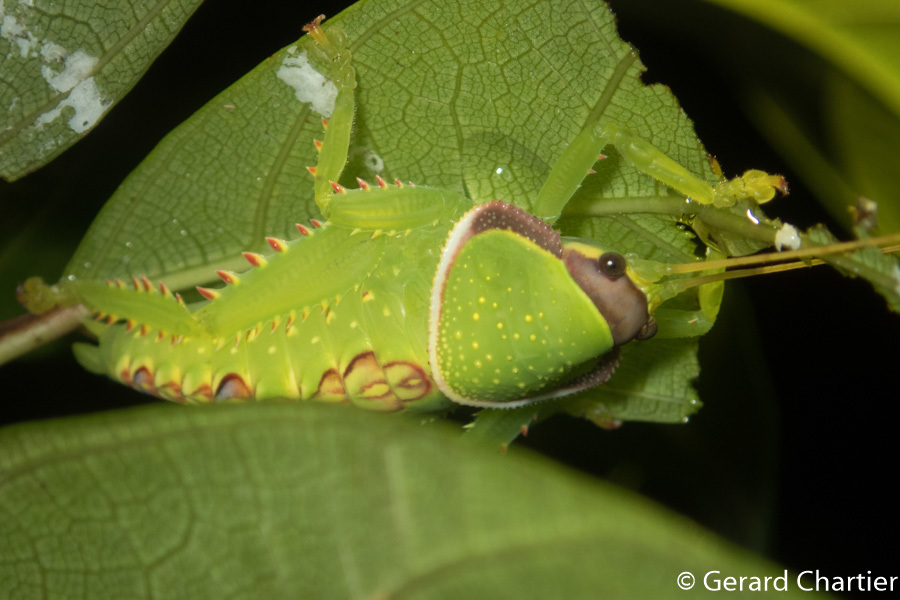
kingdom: Animalia
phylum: Arthropoda
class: Insecta
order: Orthoptera
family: Tettigoniidae
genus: Pseudophyllus
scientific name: Pseudophyllus titan
